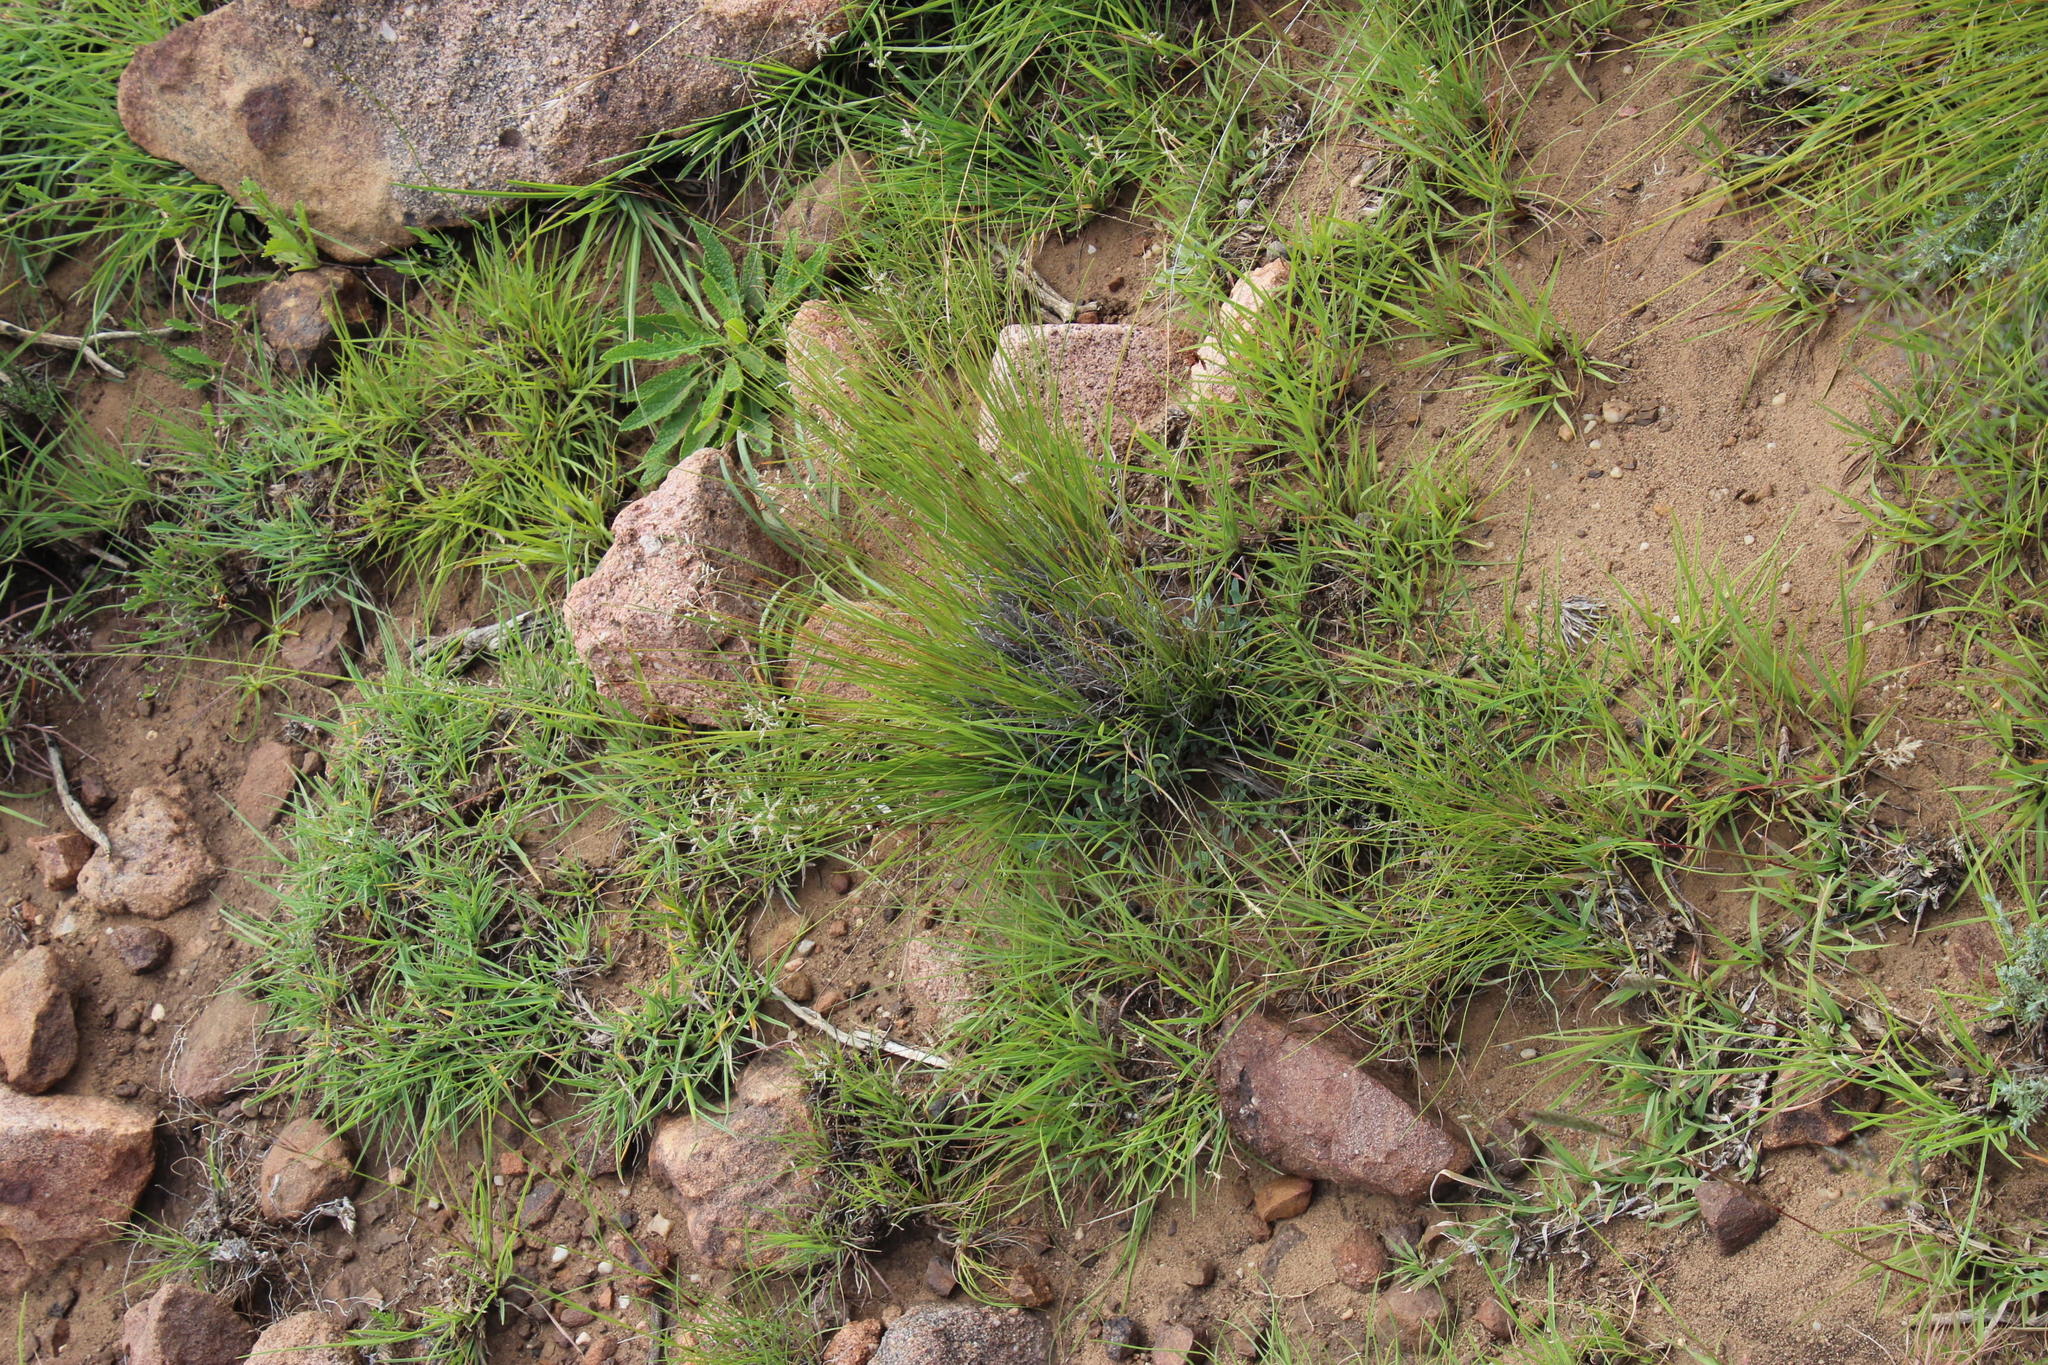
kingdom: Plantae
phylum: Tracheophyta
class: Liliopsida
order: Poales
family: Poaceae
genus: Eragrostis
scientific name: Eragrostis racemosa
